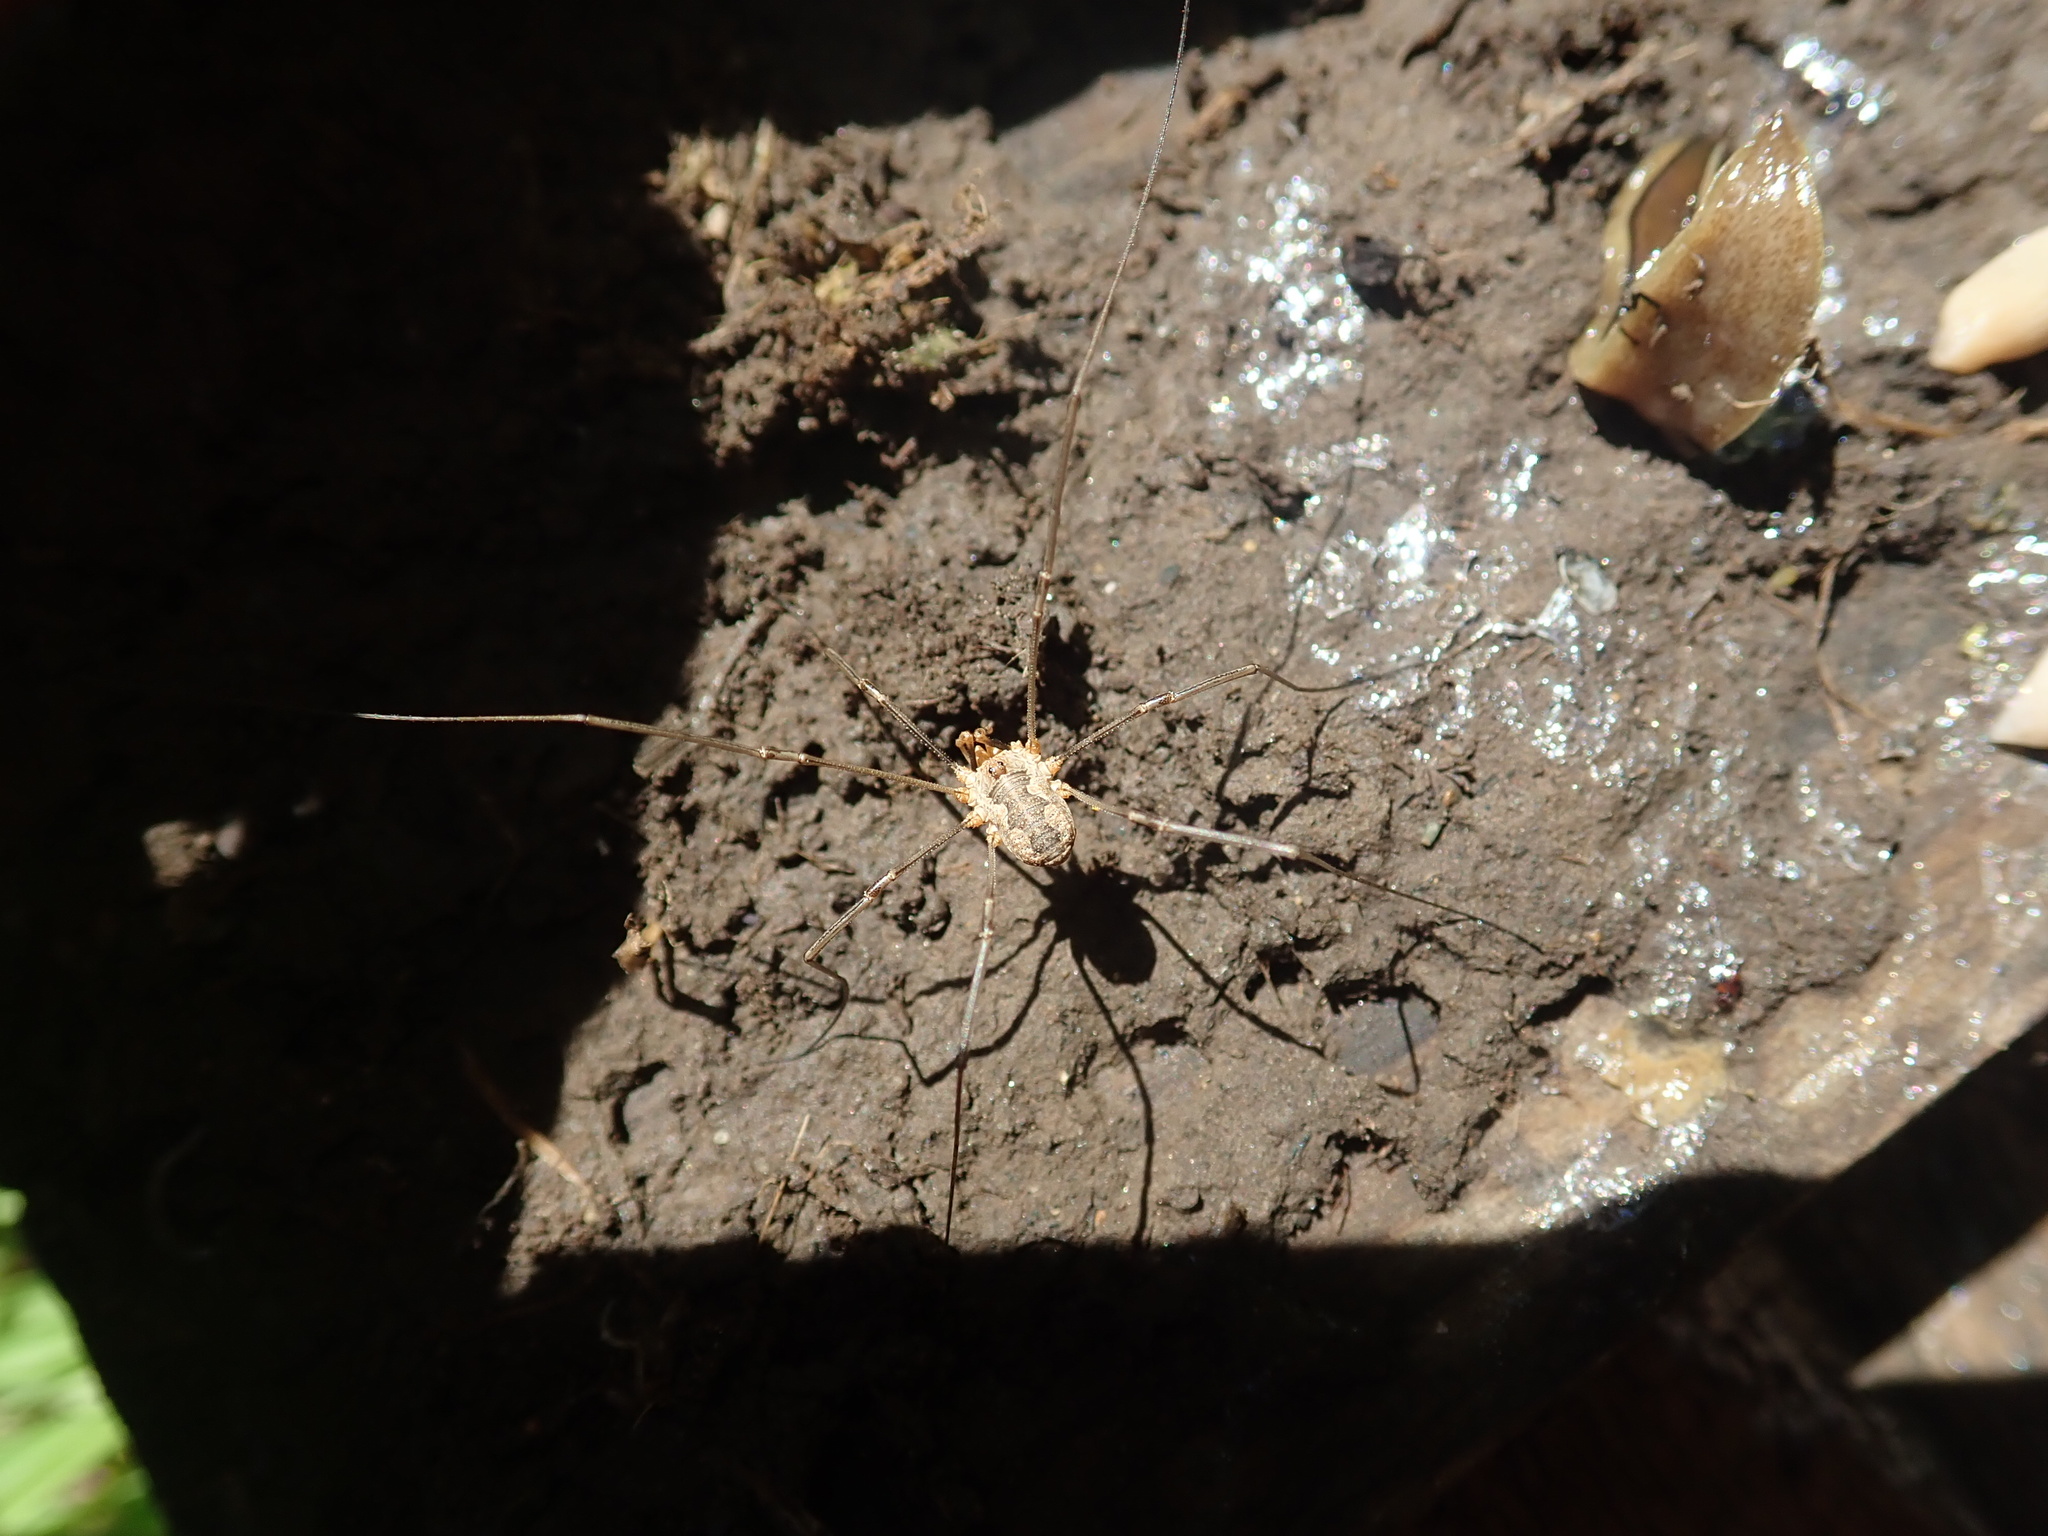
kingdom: Animalia
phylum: Arthropoda
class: Arachnida
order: Opiliones
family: Phalangiidae
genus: Phalangium
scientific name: Phalangium opilio
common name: Daddy longleg
